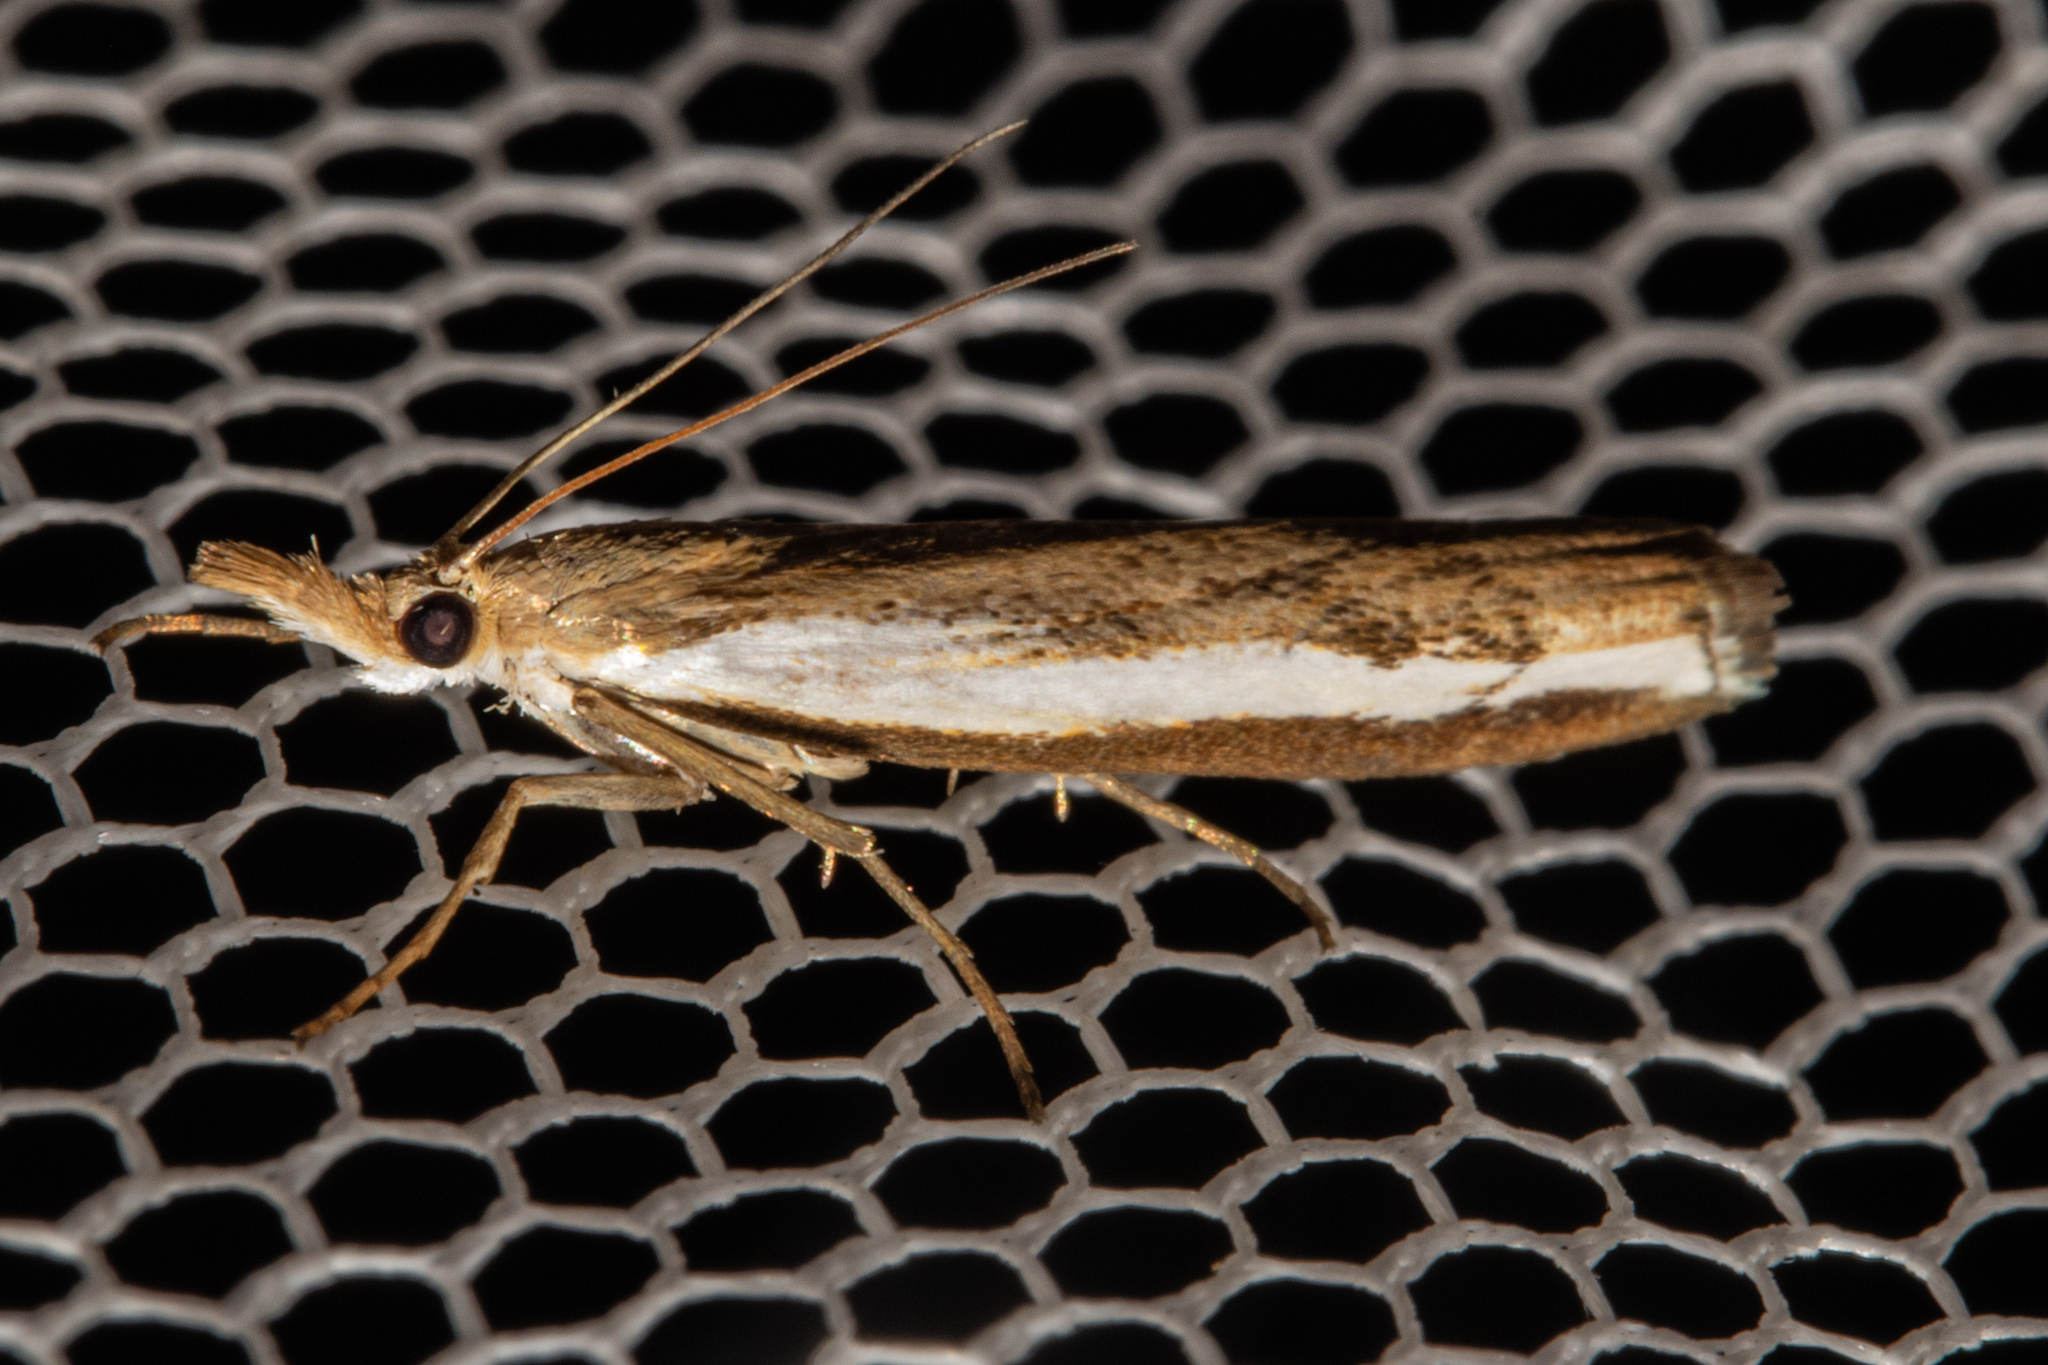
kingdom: Animalia
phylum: Arthropoda
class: Insecta
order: Lepidoptera
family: Crambidae
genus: Orocrambus
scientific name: Orocrambus flexuosellus
